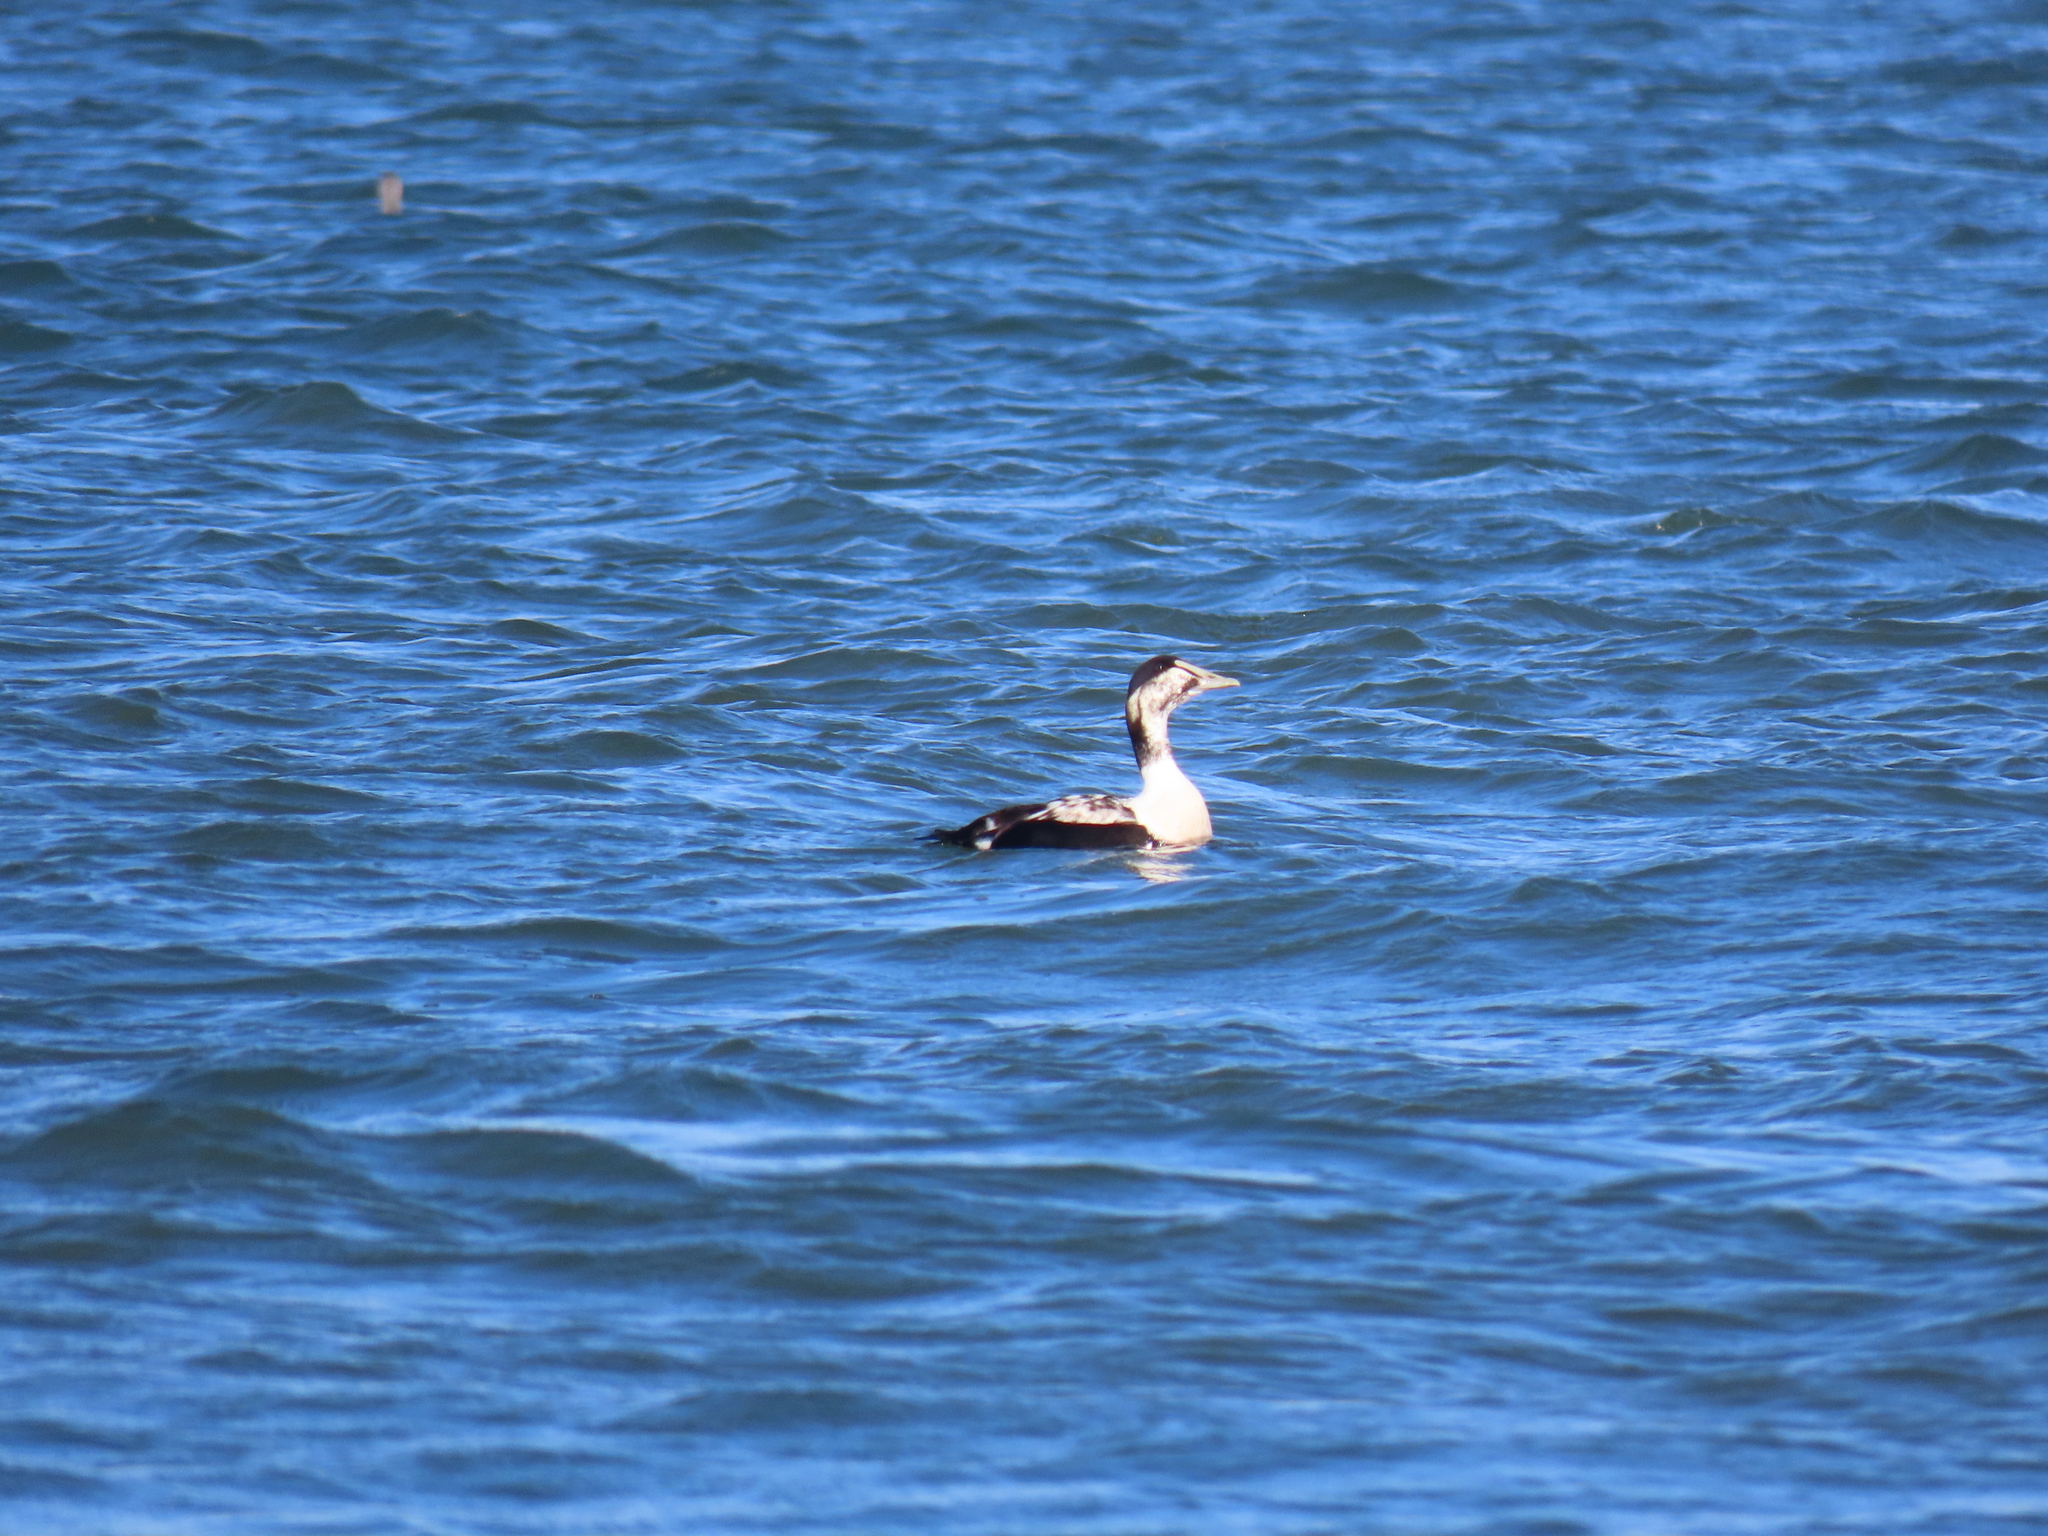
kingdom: Animalia
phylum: Chordata
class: Aves
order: Anseriformes
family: Anatidae
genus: Somateria
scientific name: Somateria mollissima
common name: Common eider
